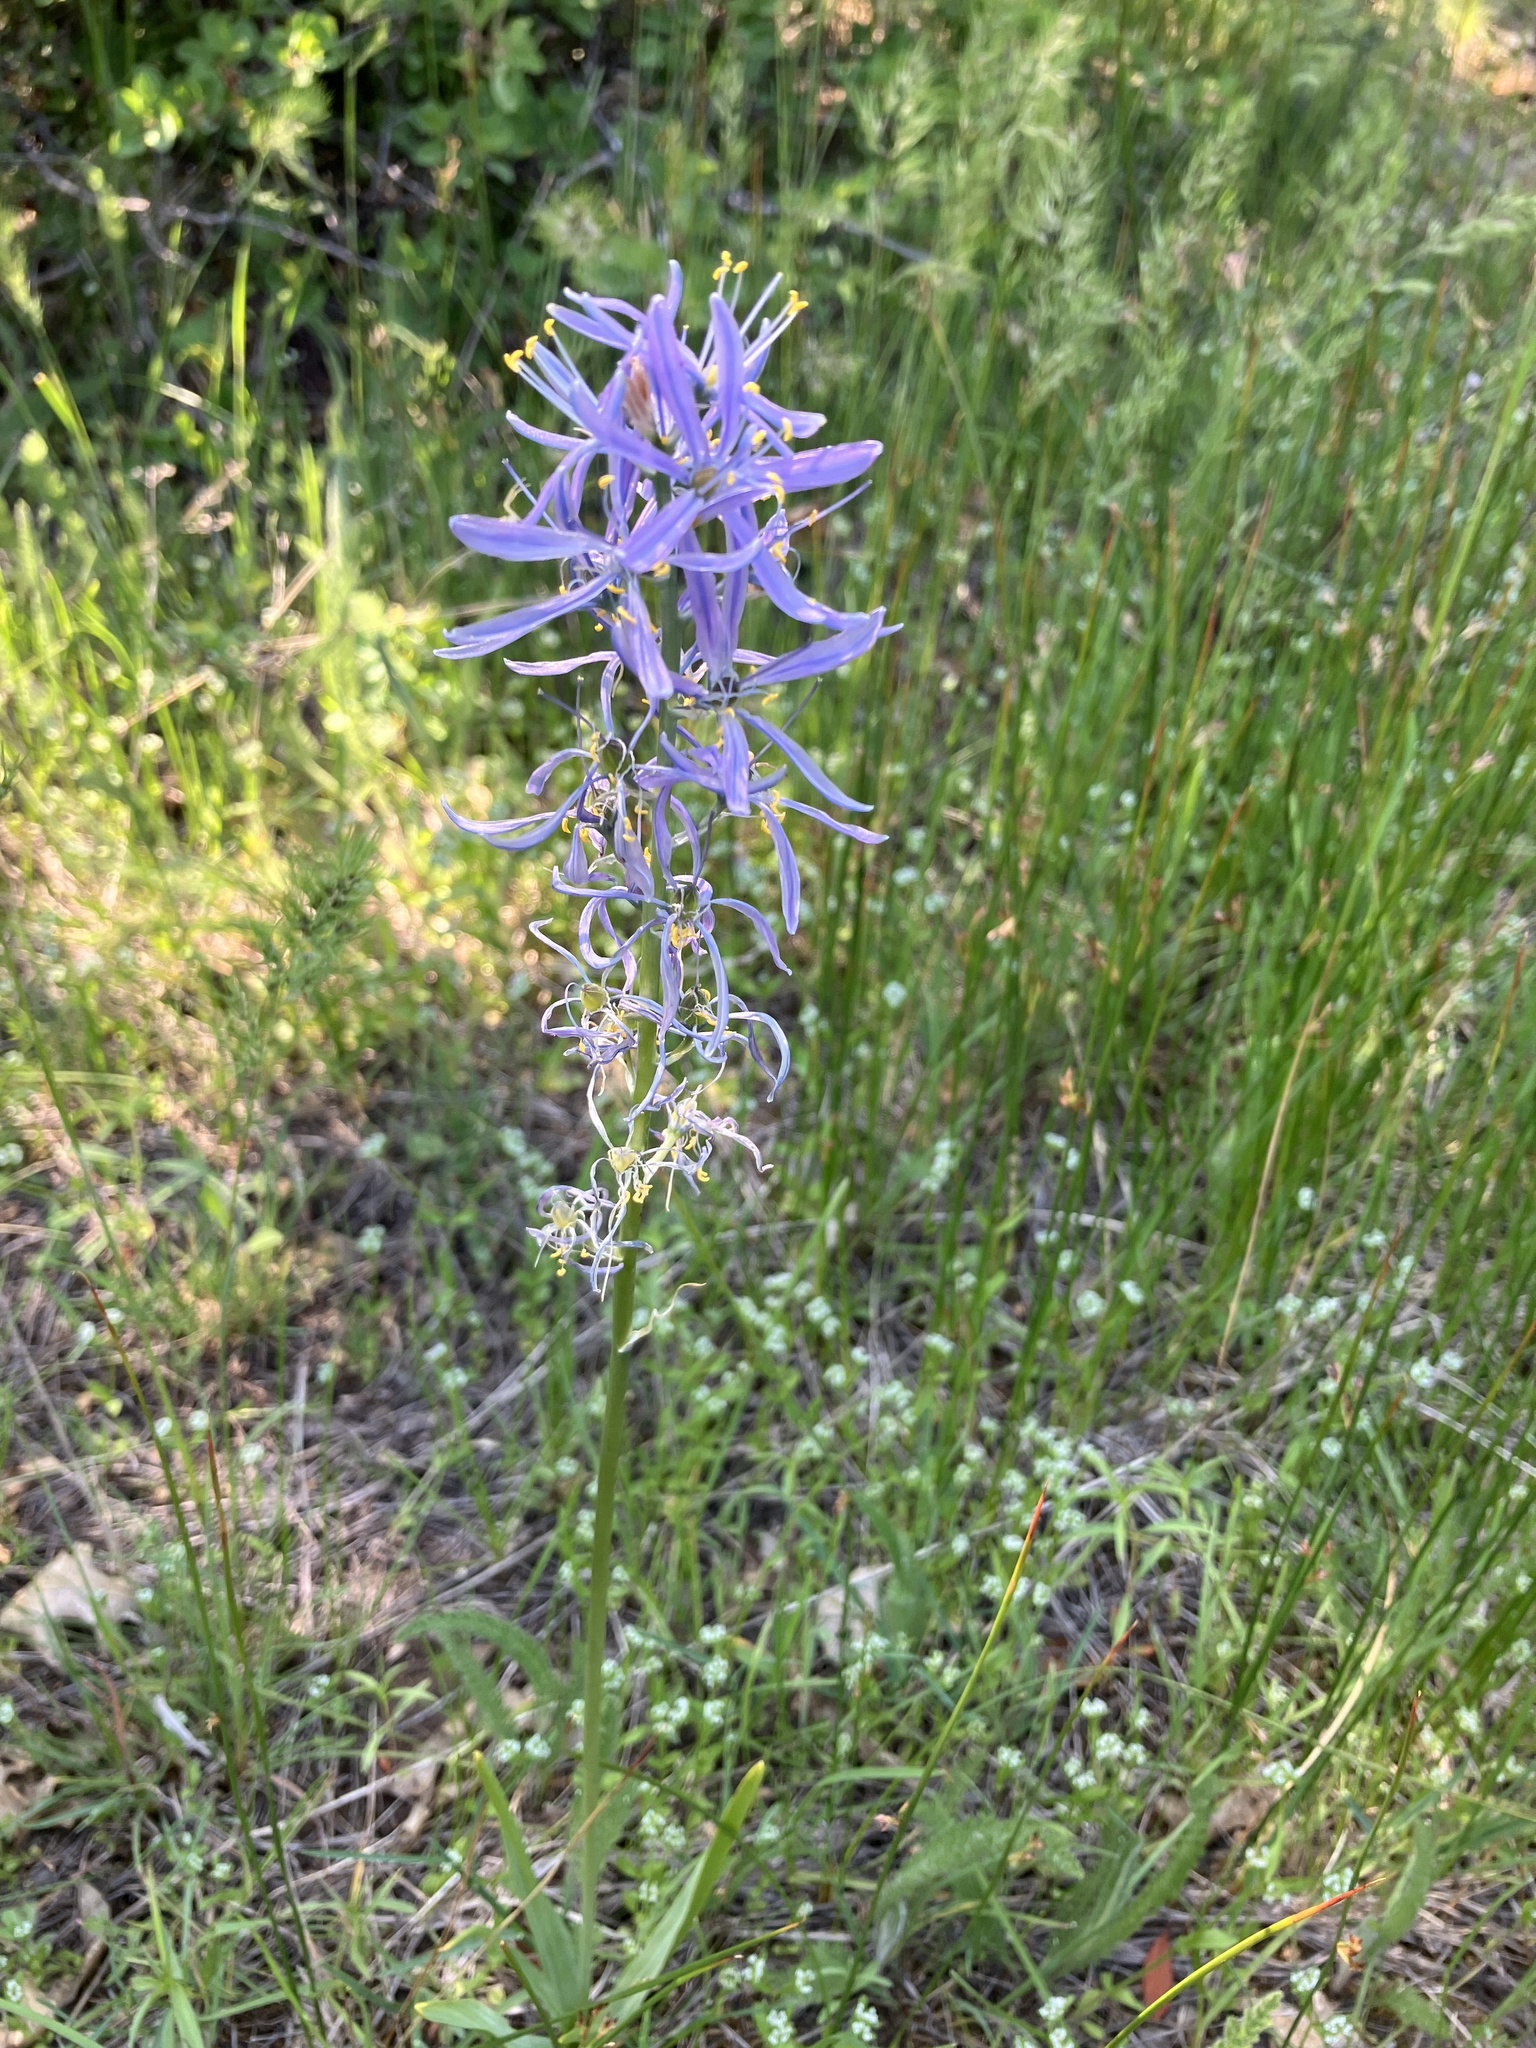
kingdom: Plantae
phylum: Tracheophyta
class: Liliopsida
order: Asparagales
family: Asparagaceae
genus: Camassia
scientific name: Camassia quamash
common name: Common camas
